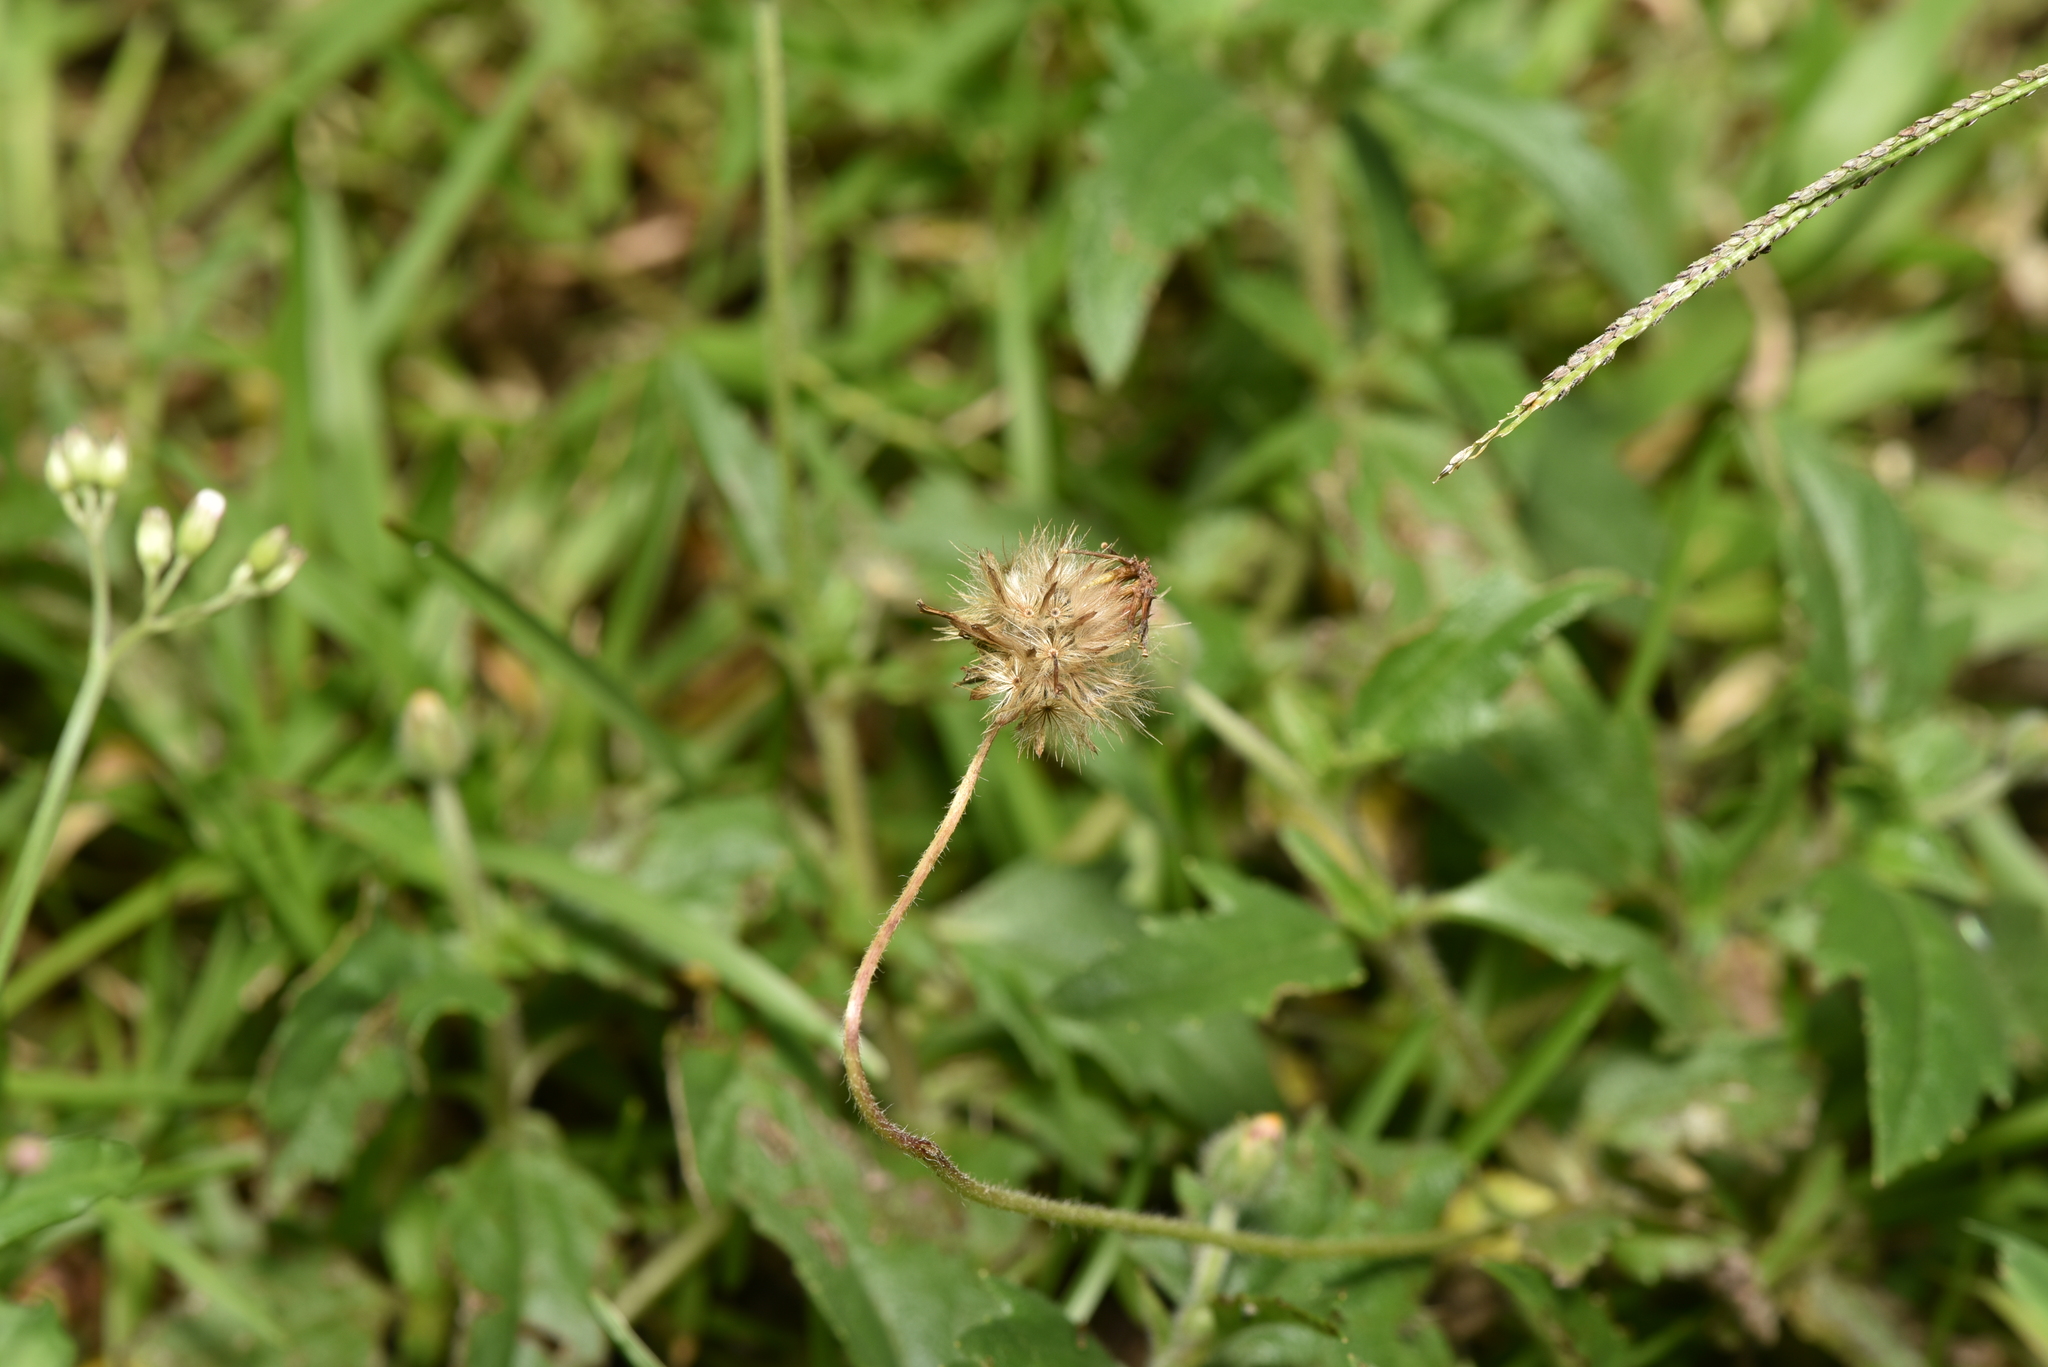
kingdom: Plantae
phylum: Tracheophyta
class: Magnoliopsida
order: Asterales
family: Asteraceae
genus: Tridax
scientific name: Tridax procumbens
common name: Coatbuttons
